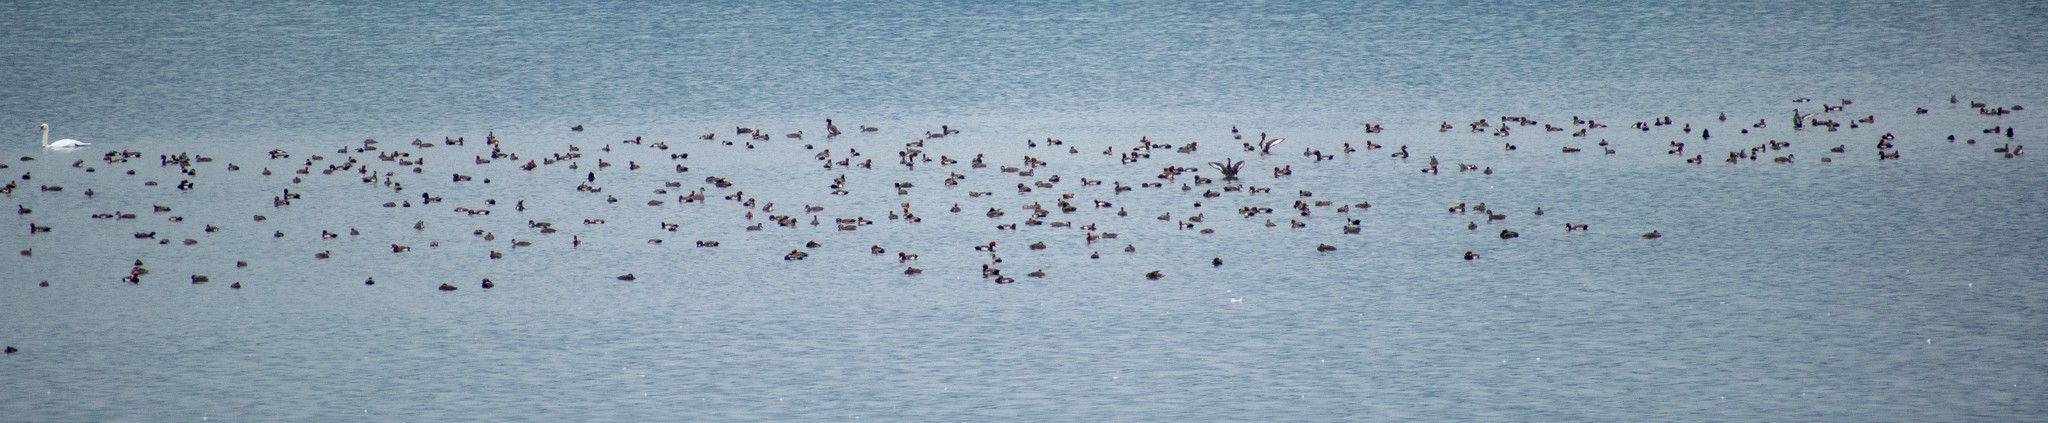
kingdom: Animalia
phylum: Chordata
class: Aves
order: Anseriformes
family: Anatidae
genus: Netta
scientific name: Netta rufina
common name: Red-crested pochard
